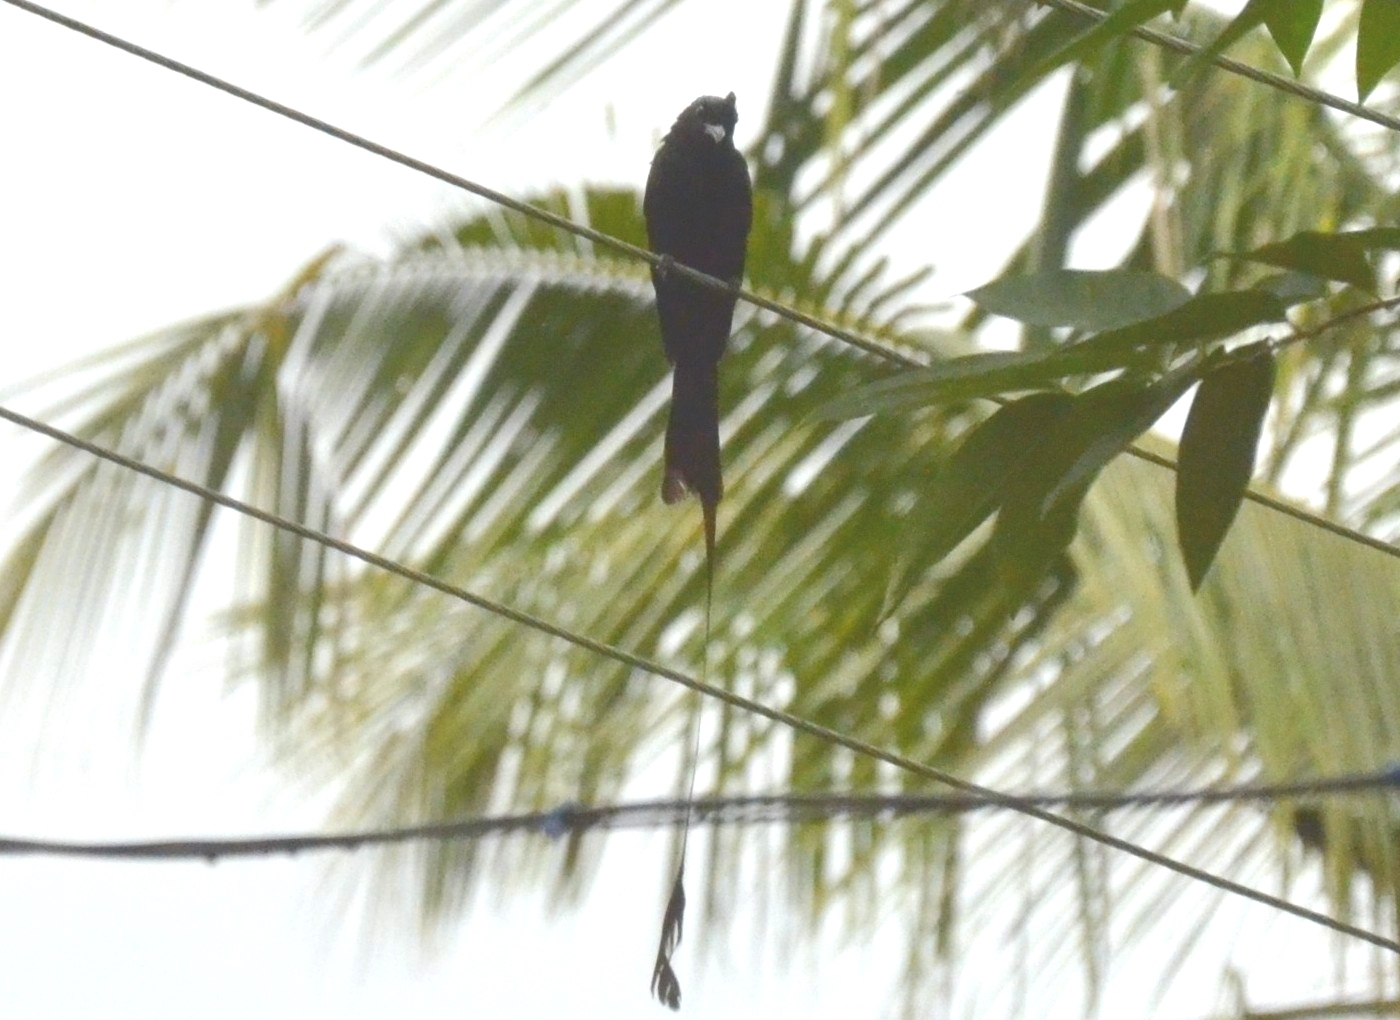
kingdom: Animalia
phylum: Chordata
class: Aves
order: Passeriformes
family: Dicruridae
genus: Dicrurus
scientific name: Dicrurus paradiseus
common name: Greater racket-tailed drongo
